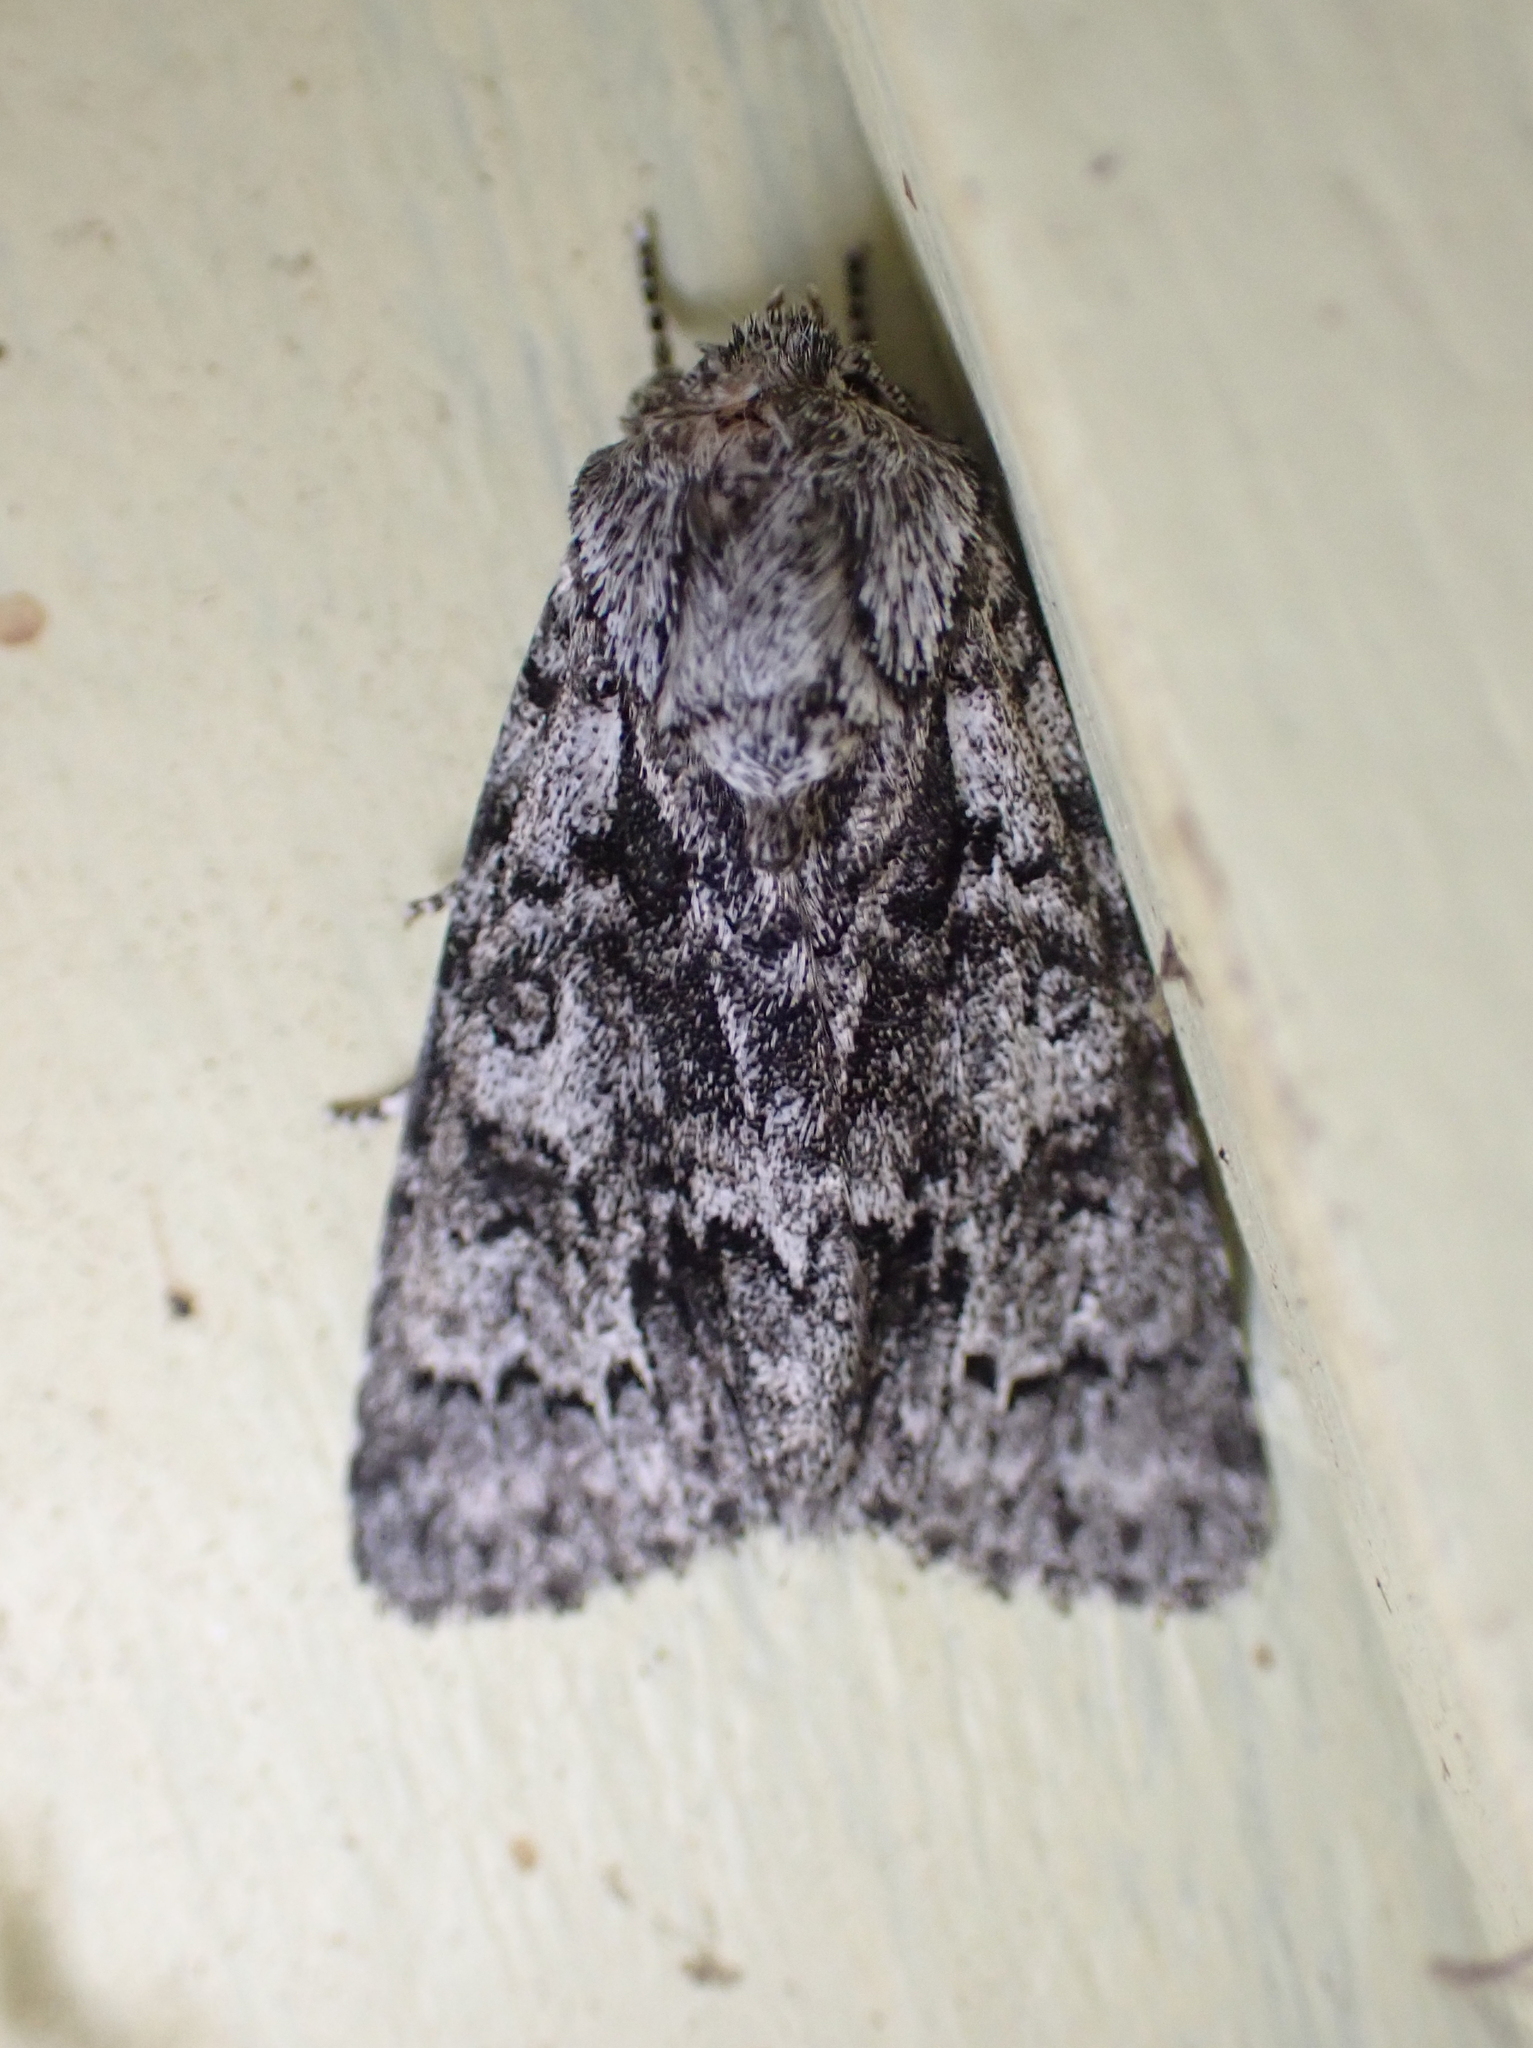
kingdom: Animalia
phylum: Arthropoda
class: Insecta
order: Lepidoptera
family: Noctuidae
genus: Acronicta
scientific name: Acronicta impressa
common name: Impressed dagger
